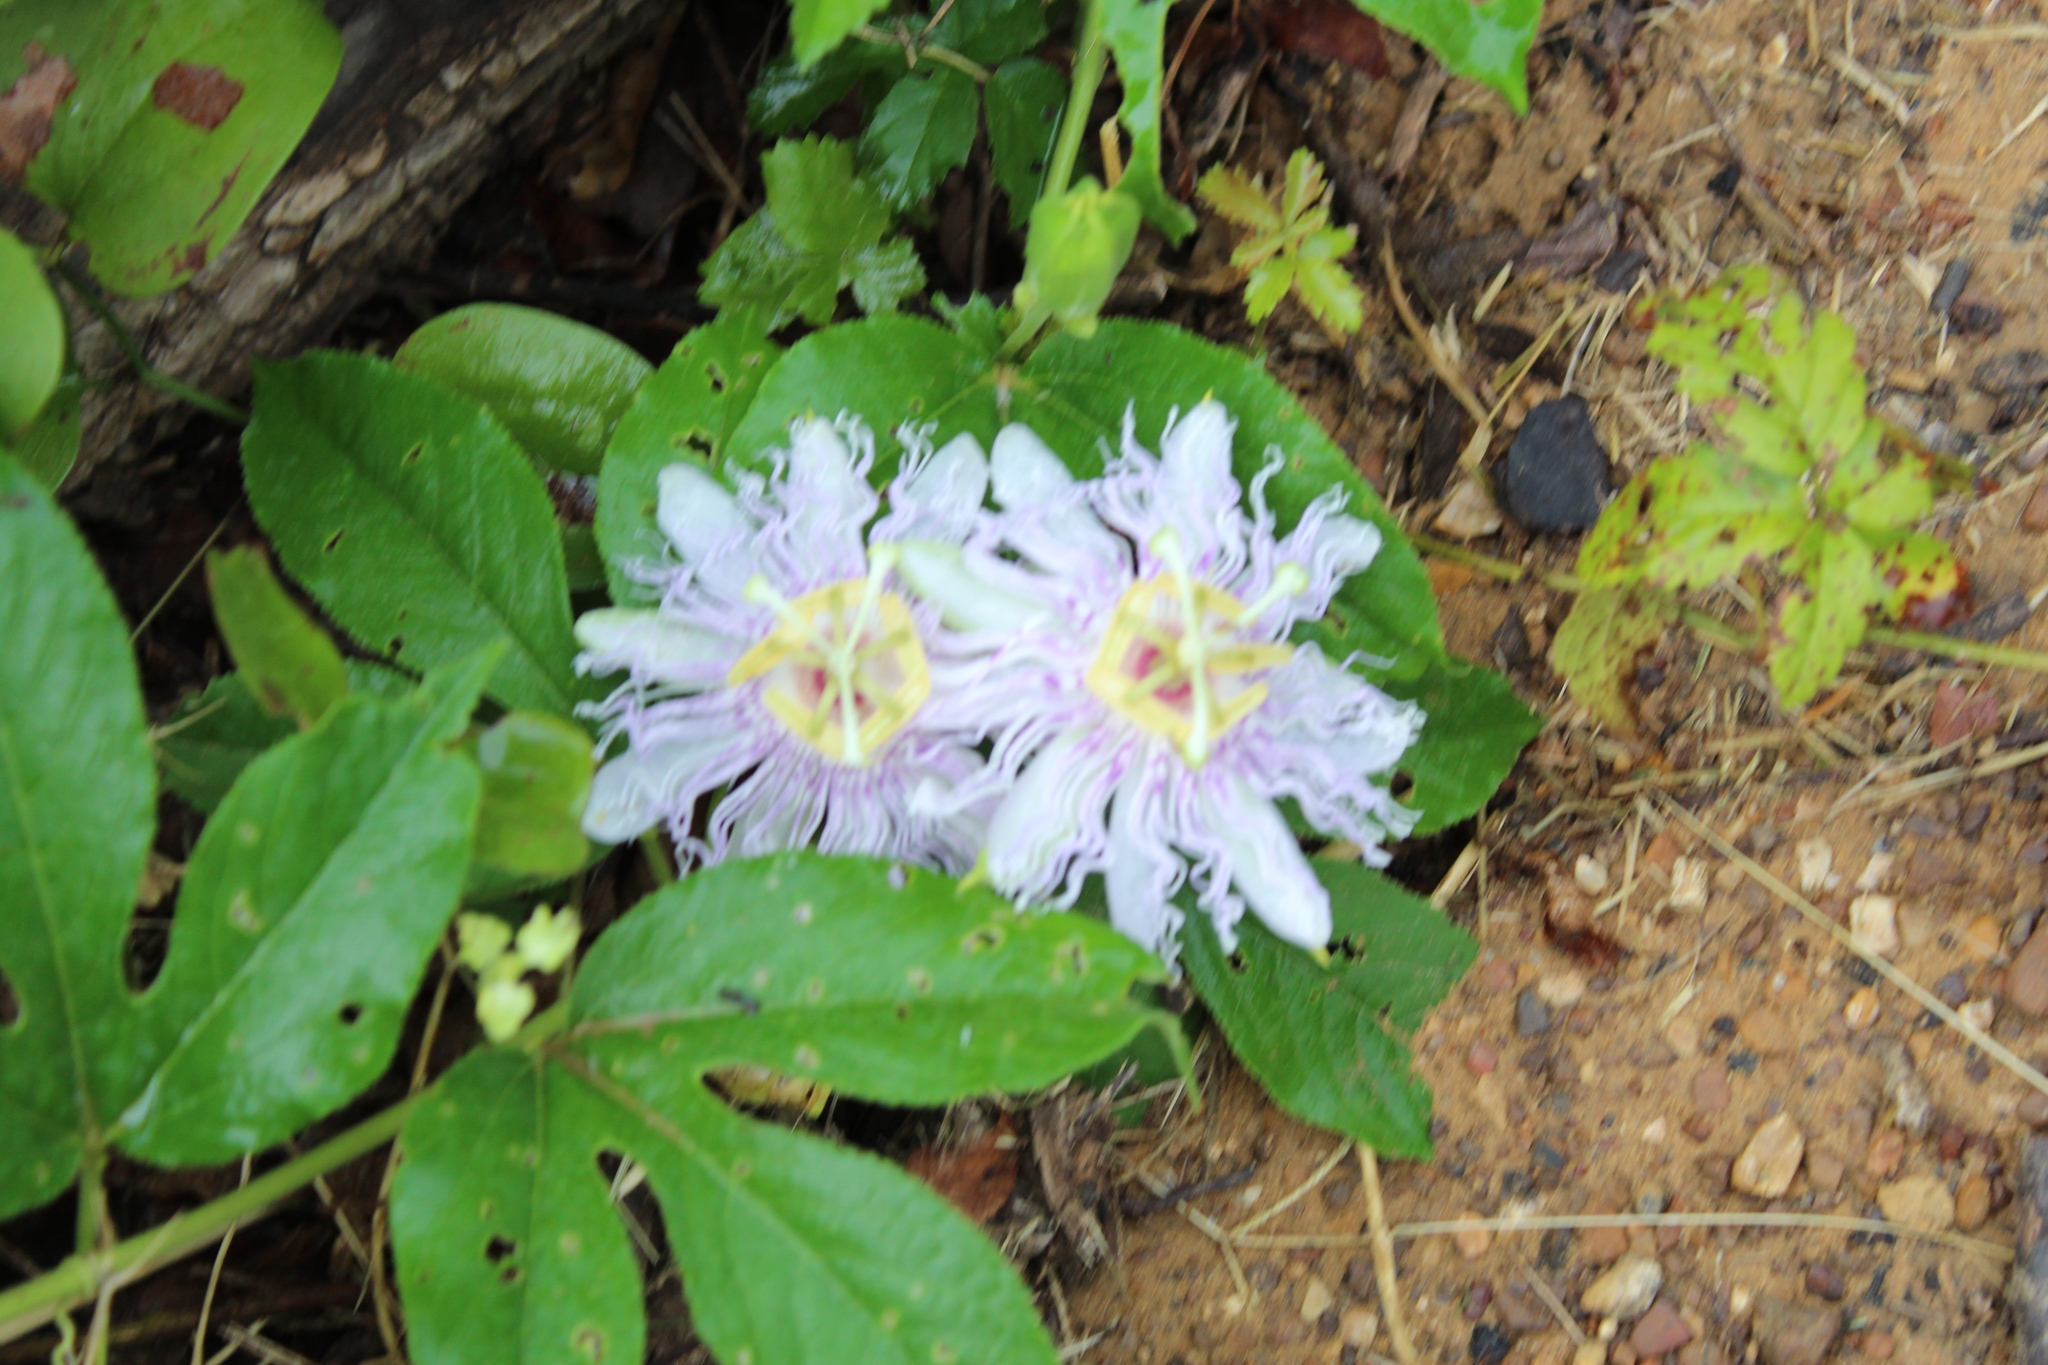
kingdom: Plantae
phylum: Tracheophyta
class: Magnoliopsida
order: Malpighiales
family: Passifloraceae
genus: Passiflora
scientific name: Passiflora incarnata
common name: Apricot-vine
